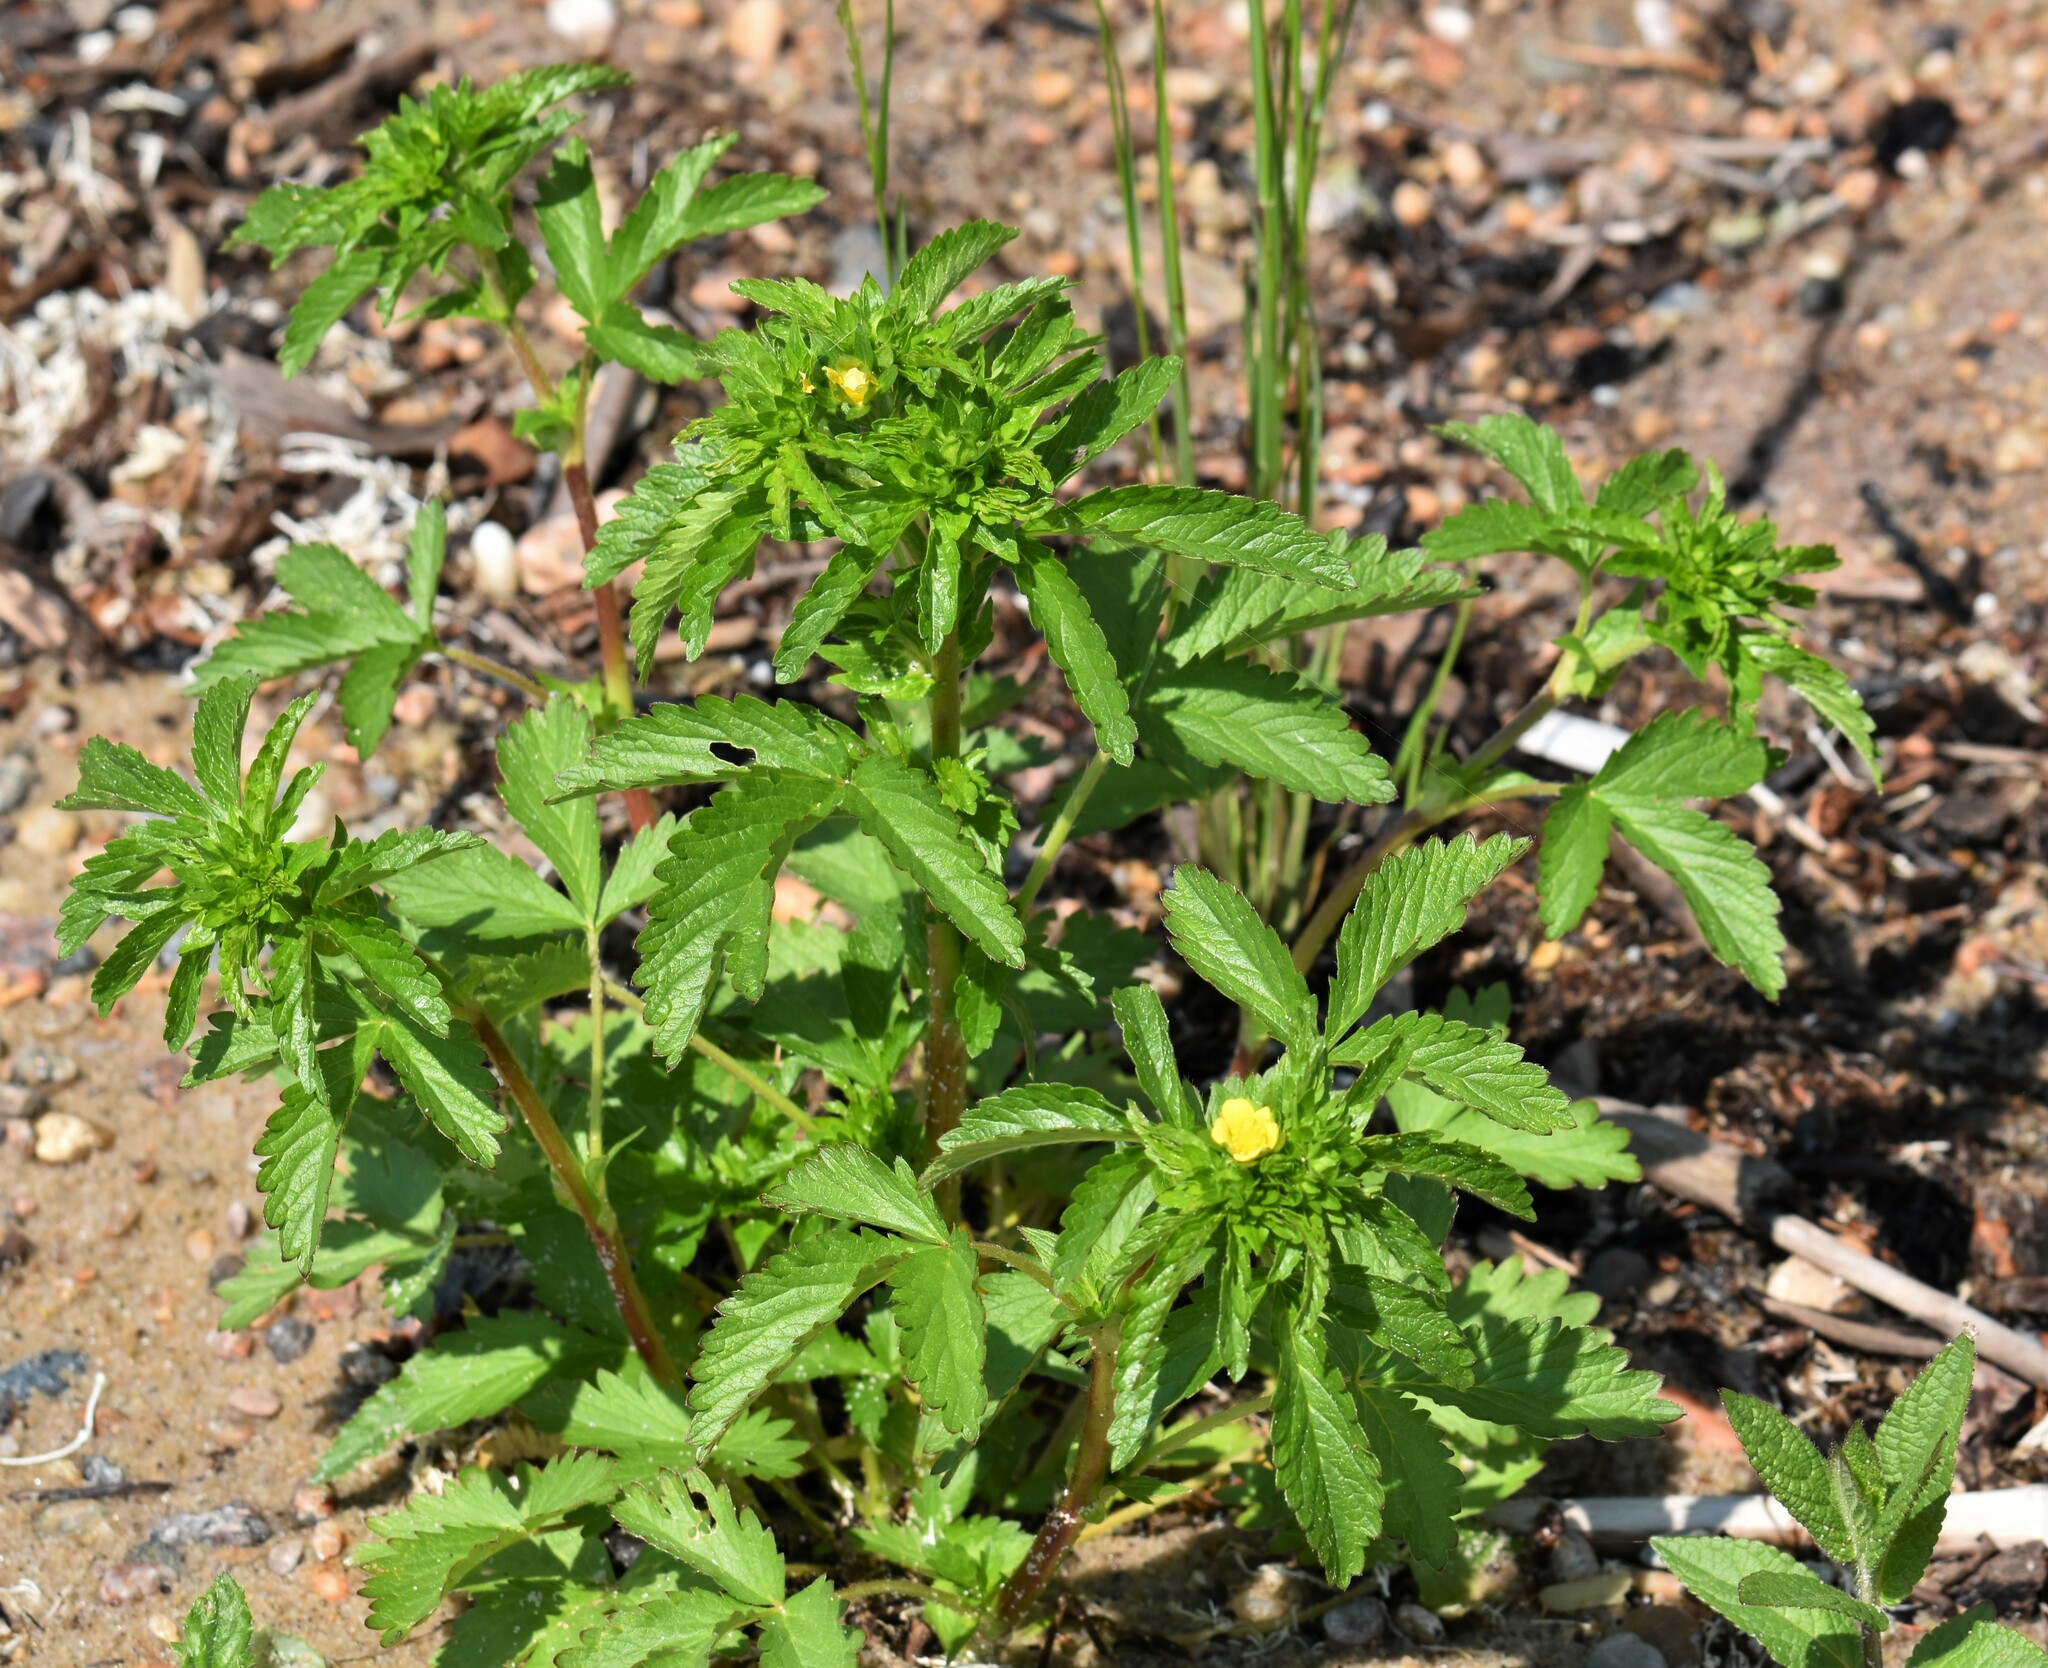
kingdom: Plantae
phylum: Tracheophyta
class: Magnoliopsida
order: Rosales
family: Rosaceae
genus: Potentilla
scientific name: Potentilla norvegica
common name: Ternate-leaved cinquefoil
